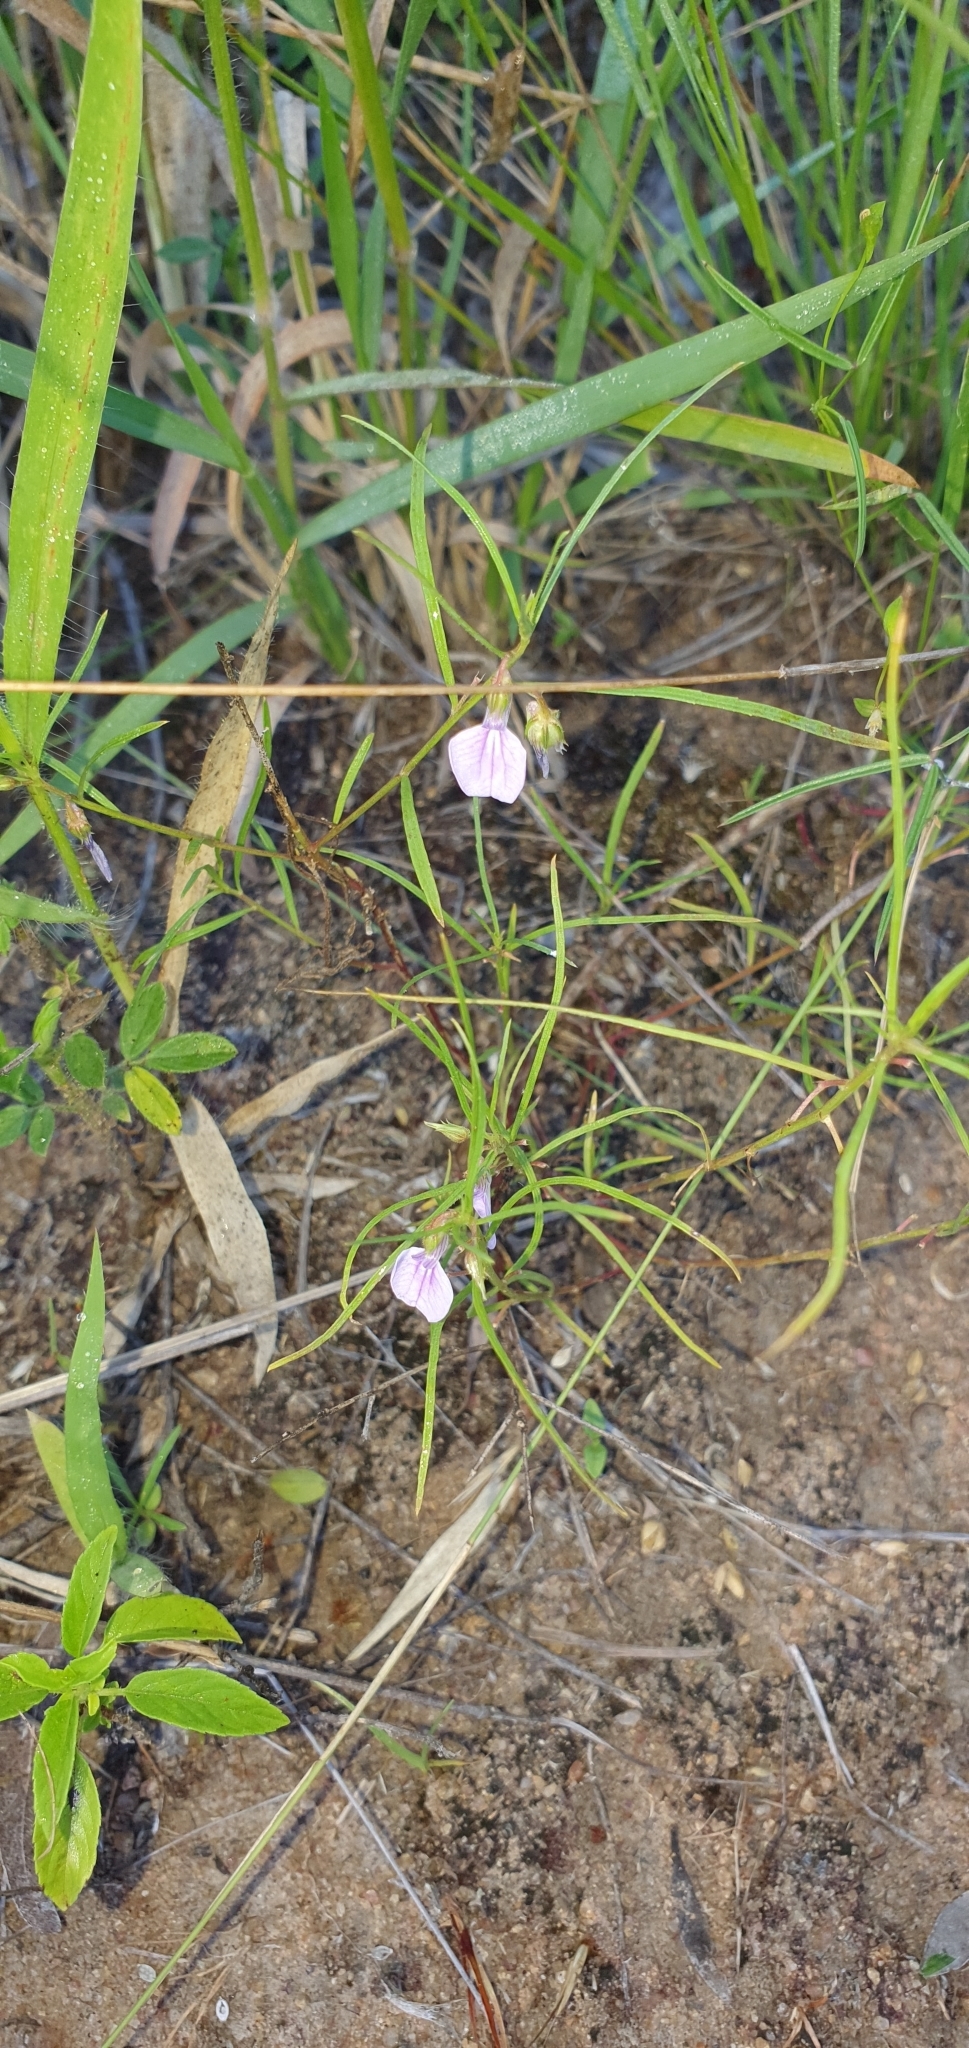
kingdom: Plantae
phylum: Tracheophyta
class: Magnoliopsida
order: Malpighiales
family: Violaceae
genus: Pigea
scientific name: Pigea enneasperma
